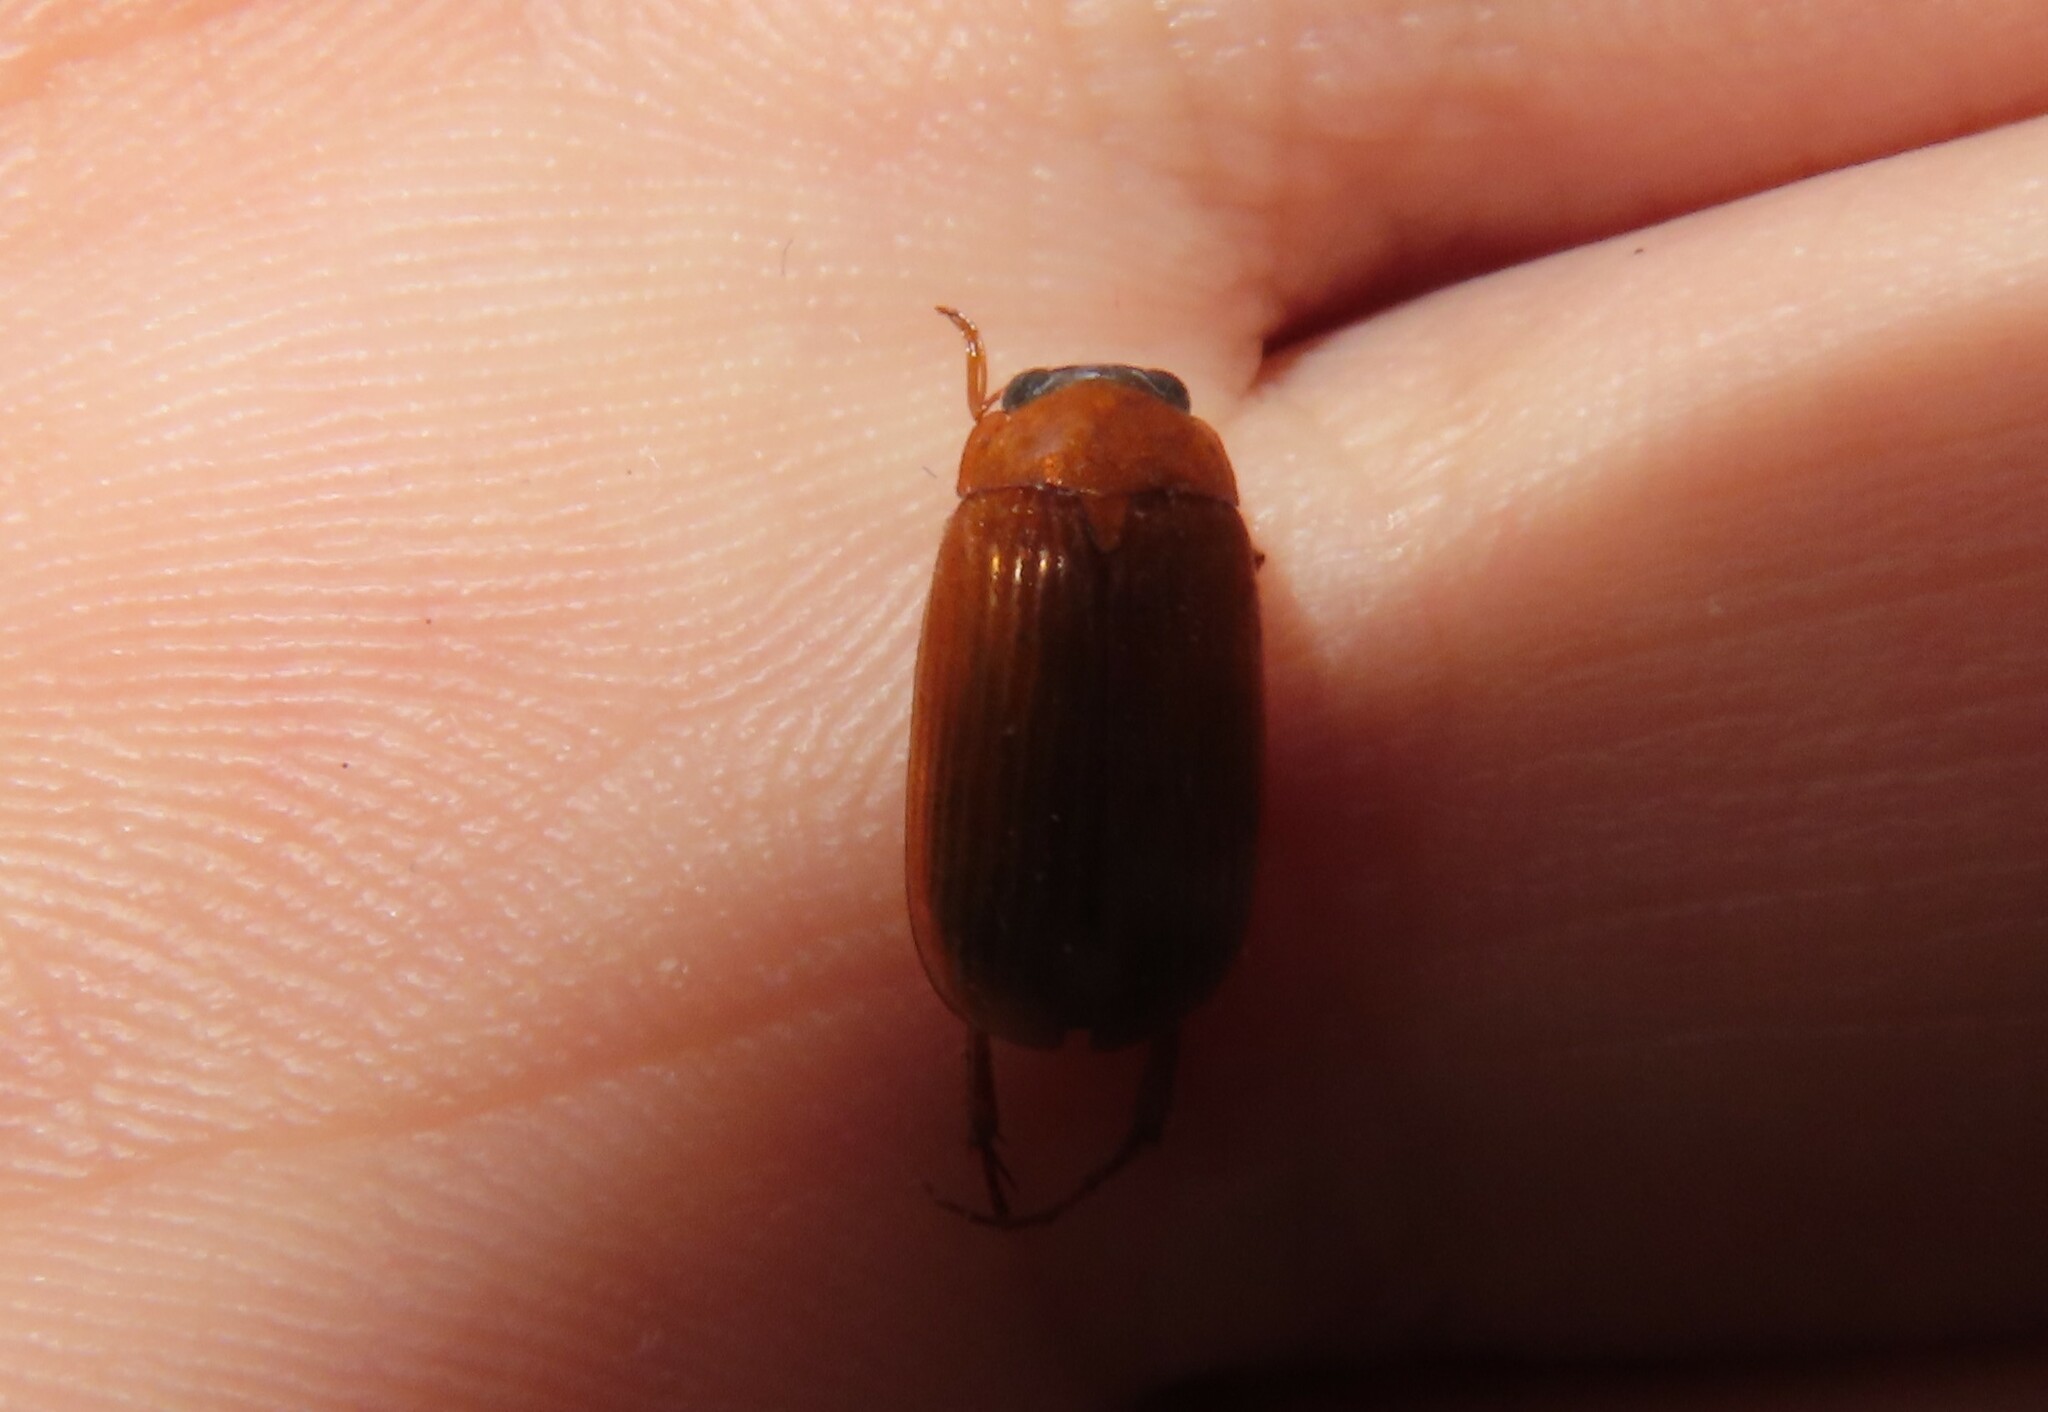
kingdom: Animalia
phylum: Arthropoda
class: Insecta
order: Coleoptera
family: Scarabaeidae
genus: Maladera
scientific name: Maladera formosae
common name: Asiatic garden beetle
